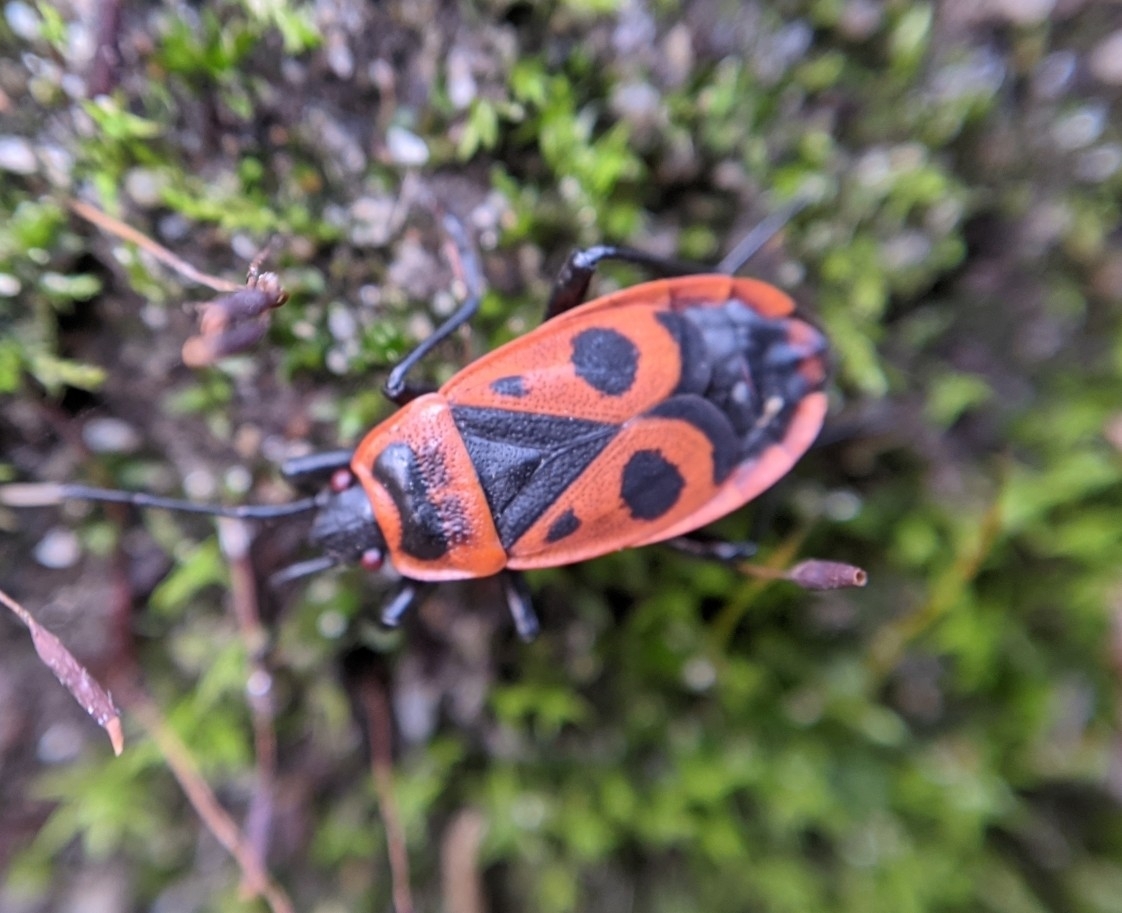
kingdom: Animalia
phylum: Arthropoda
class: Insecta
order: Hemiptera
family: Pyrrhocoridae
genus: Pyrrhocoris
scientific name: Pyrrhocoris apterus
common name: Firebug
